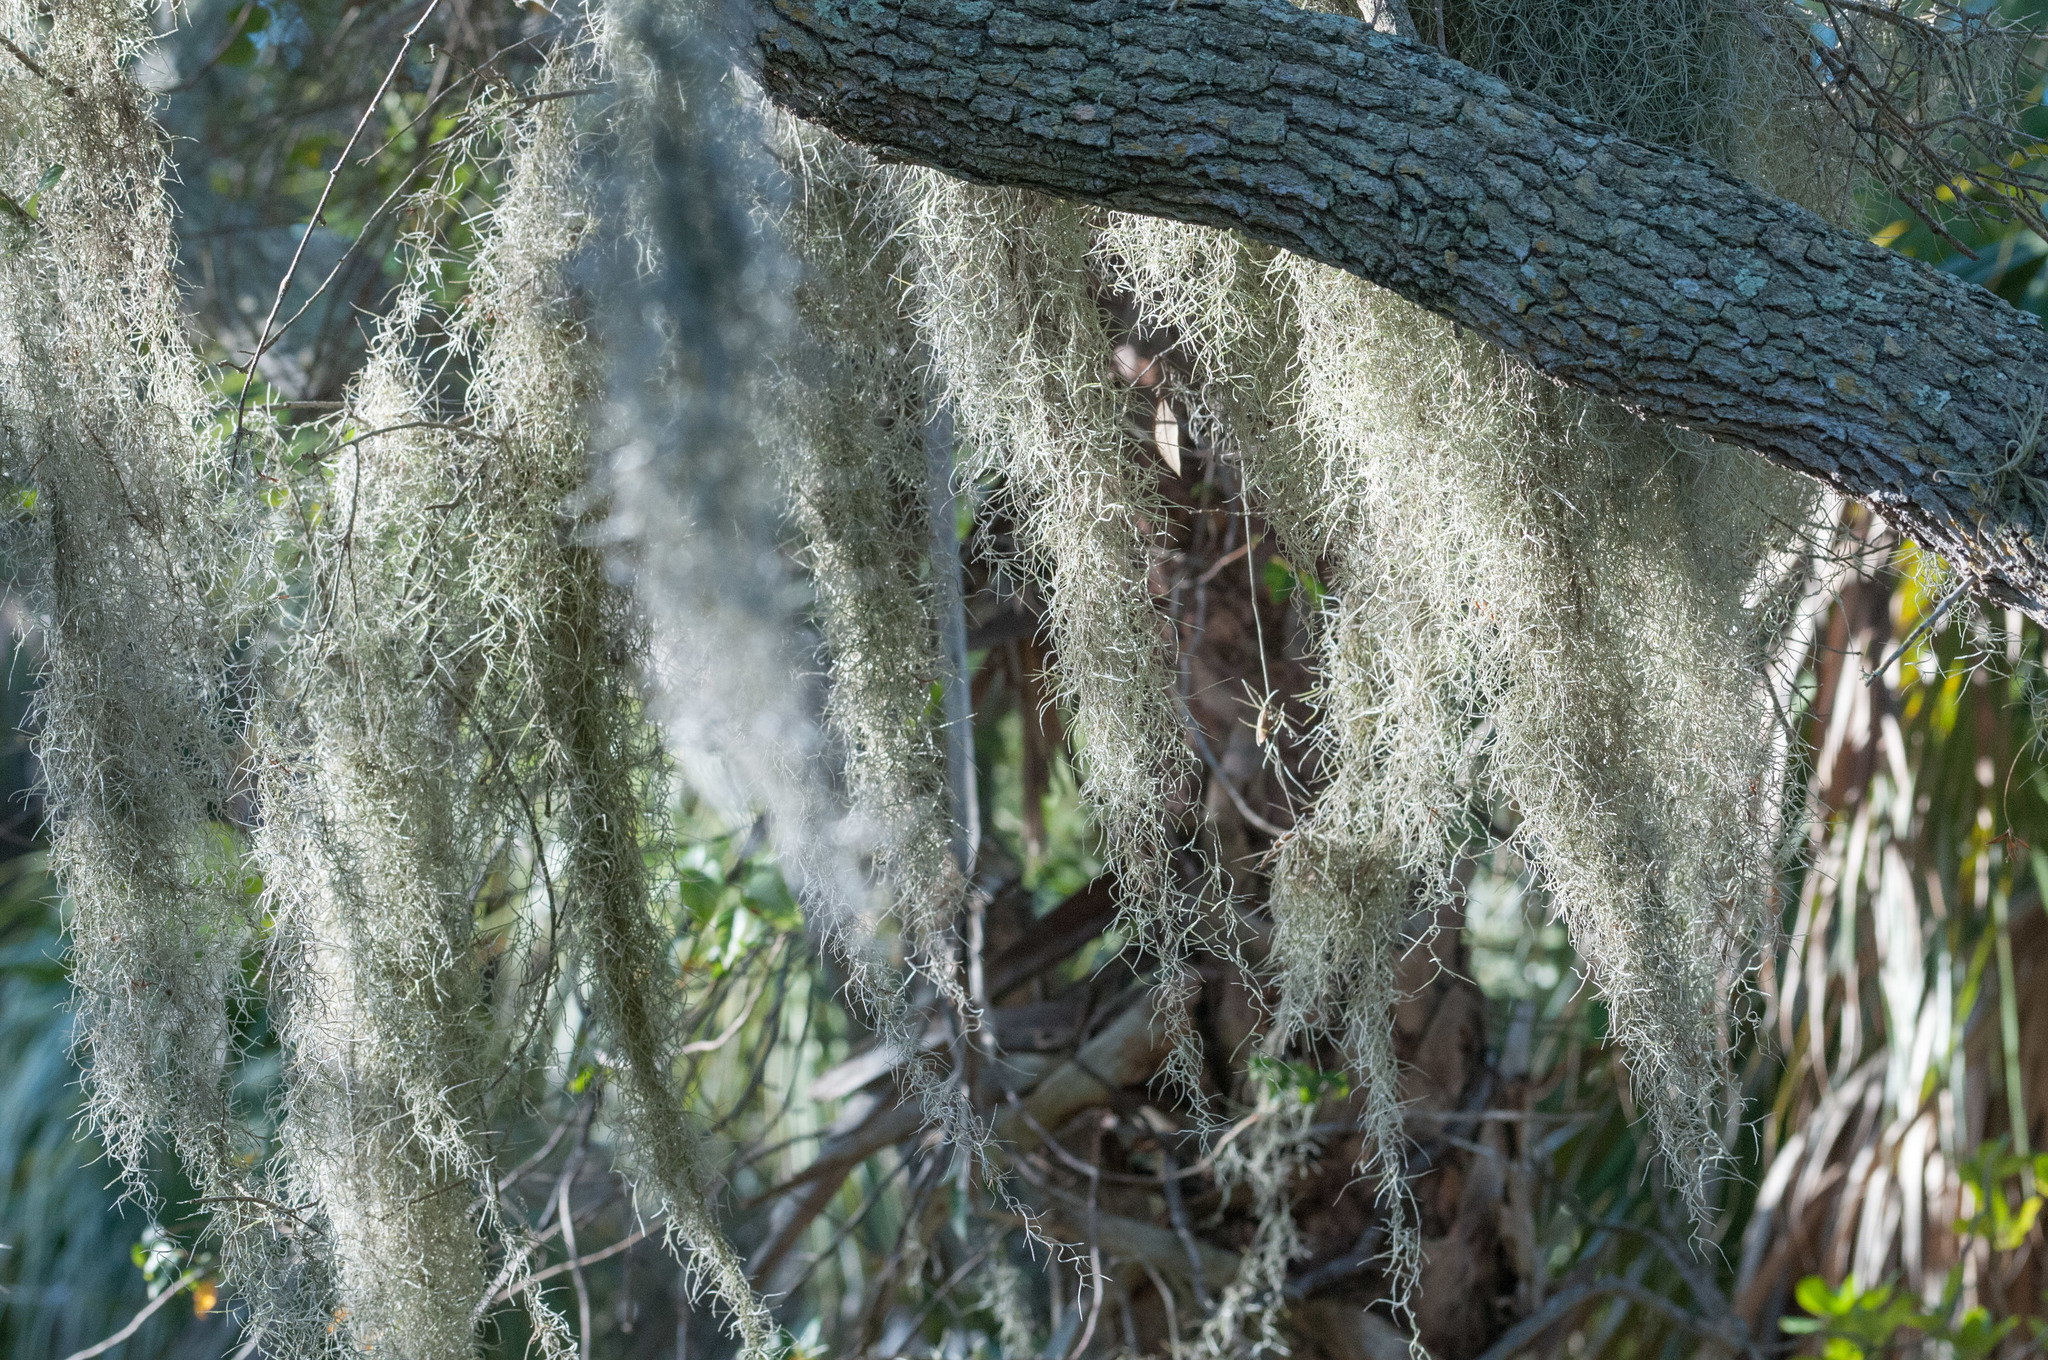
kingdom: Plantae
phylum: Tracheophyta
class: Liliopsida
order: Poales
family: Bromeliaceae
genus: Tillandsia
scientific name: Tillandsia usneoides
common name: Spanish moss
